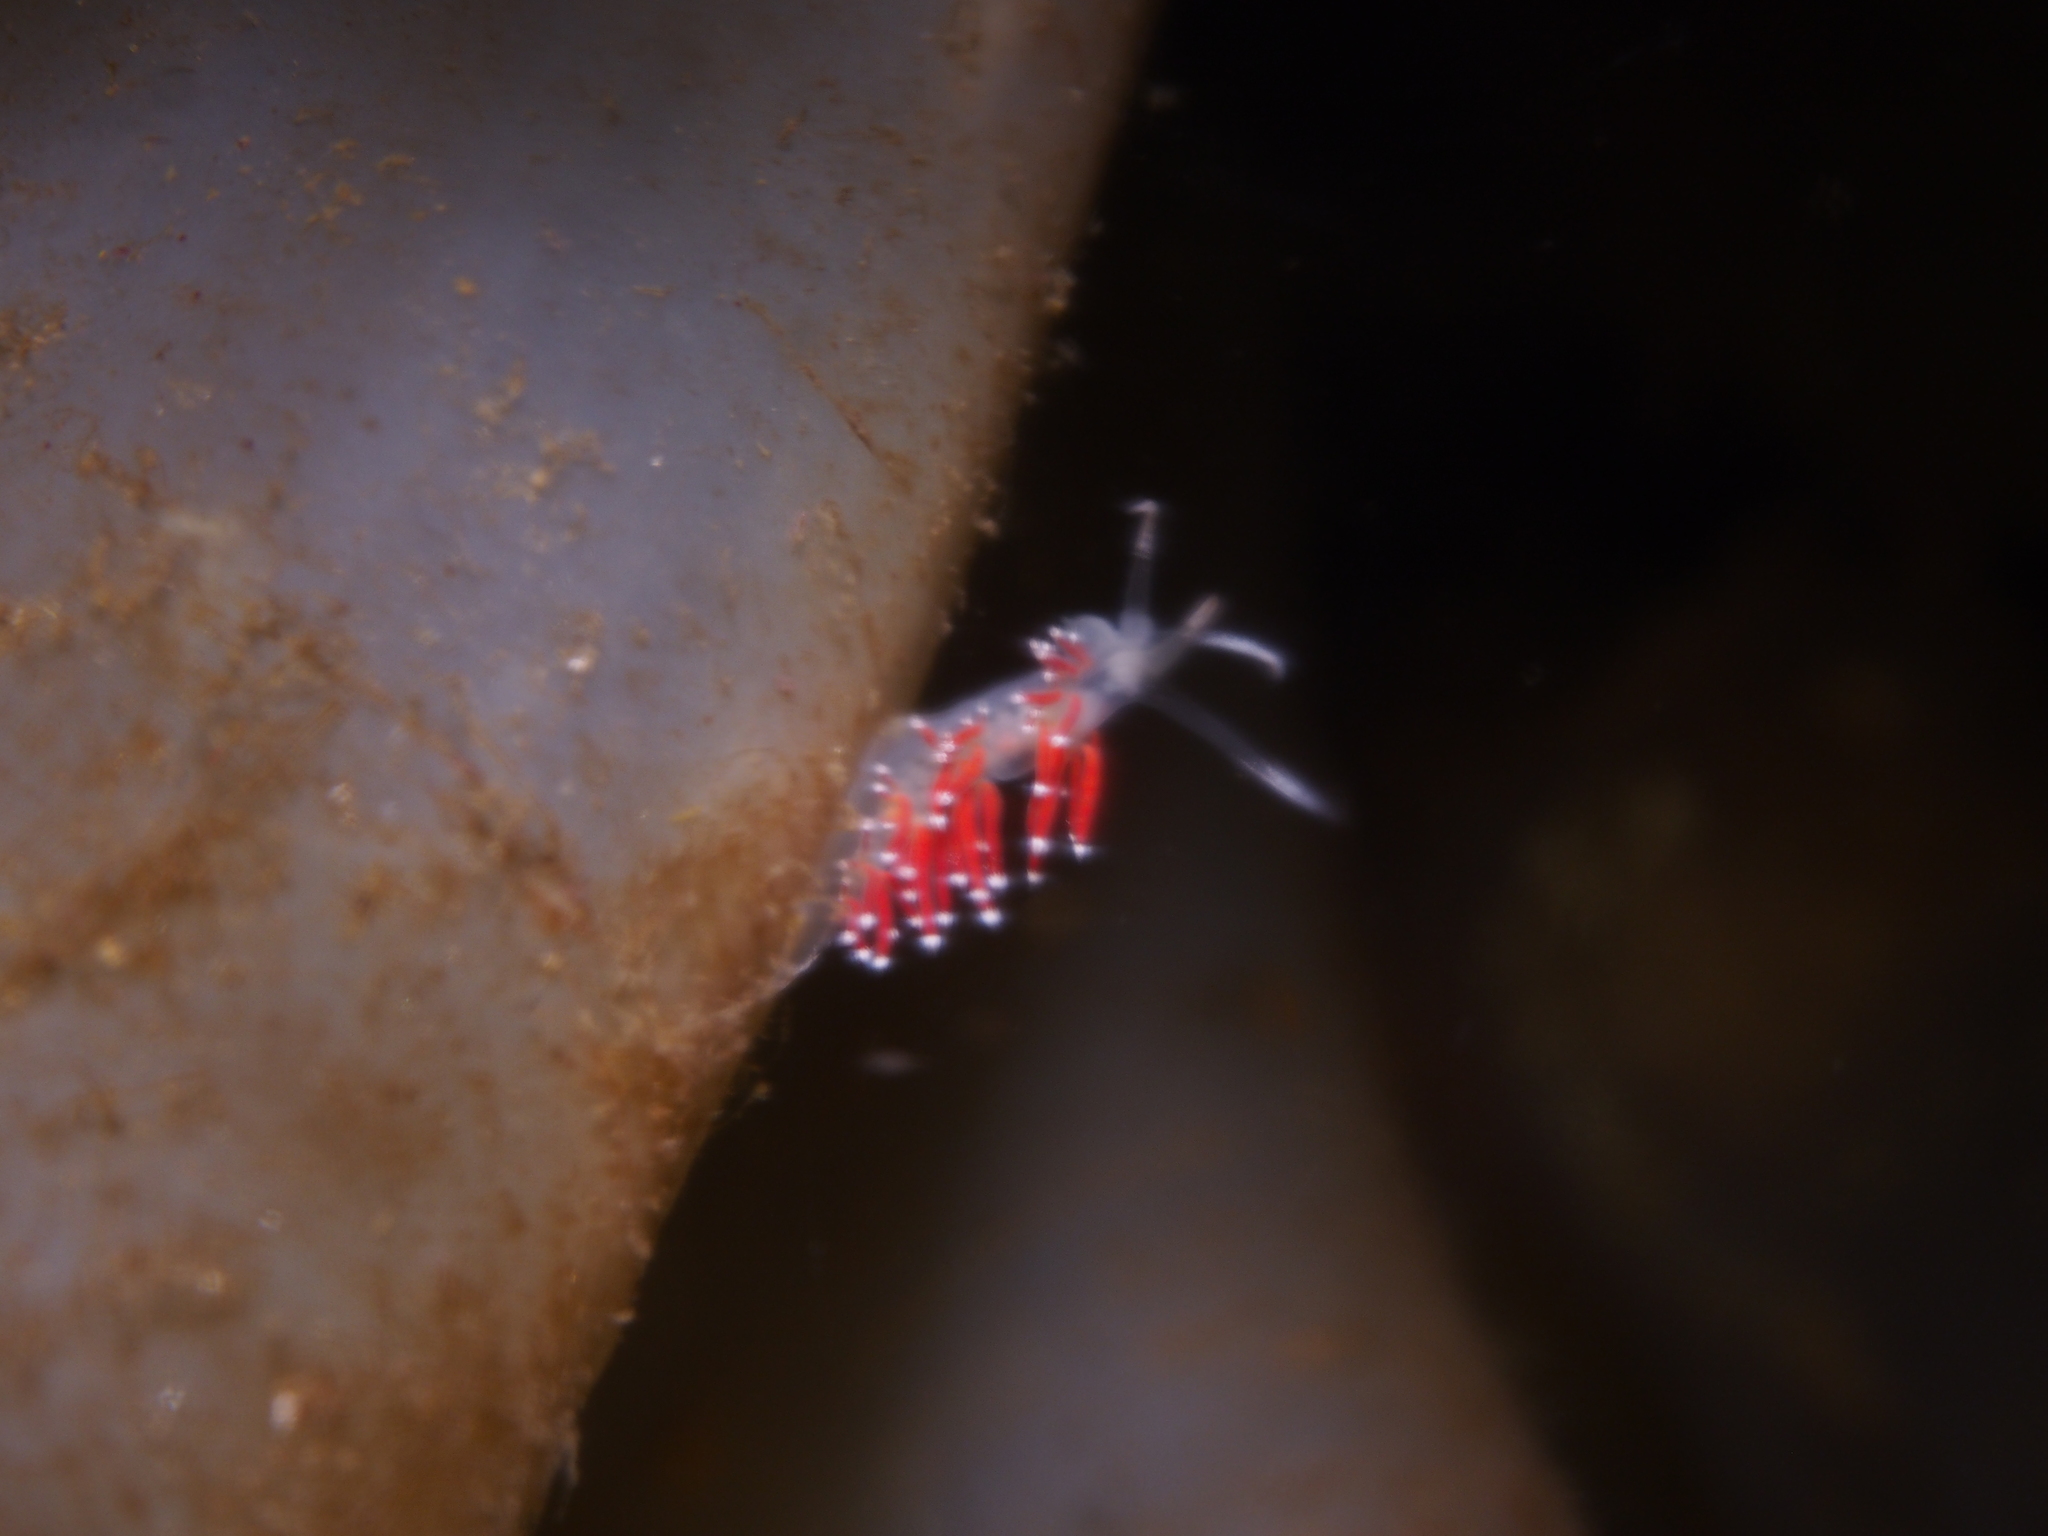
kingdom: Animalia
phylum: Mollusca
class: Gastropoda
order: Nudibranchia
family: Coryphellidae
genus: Coryphella
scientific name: Coryphella gracilis
